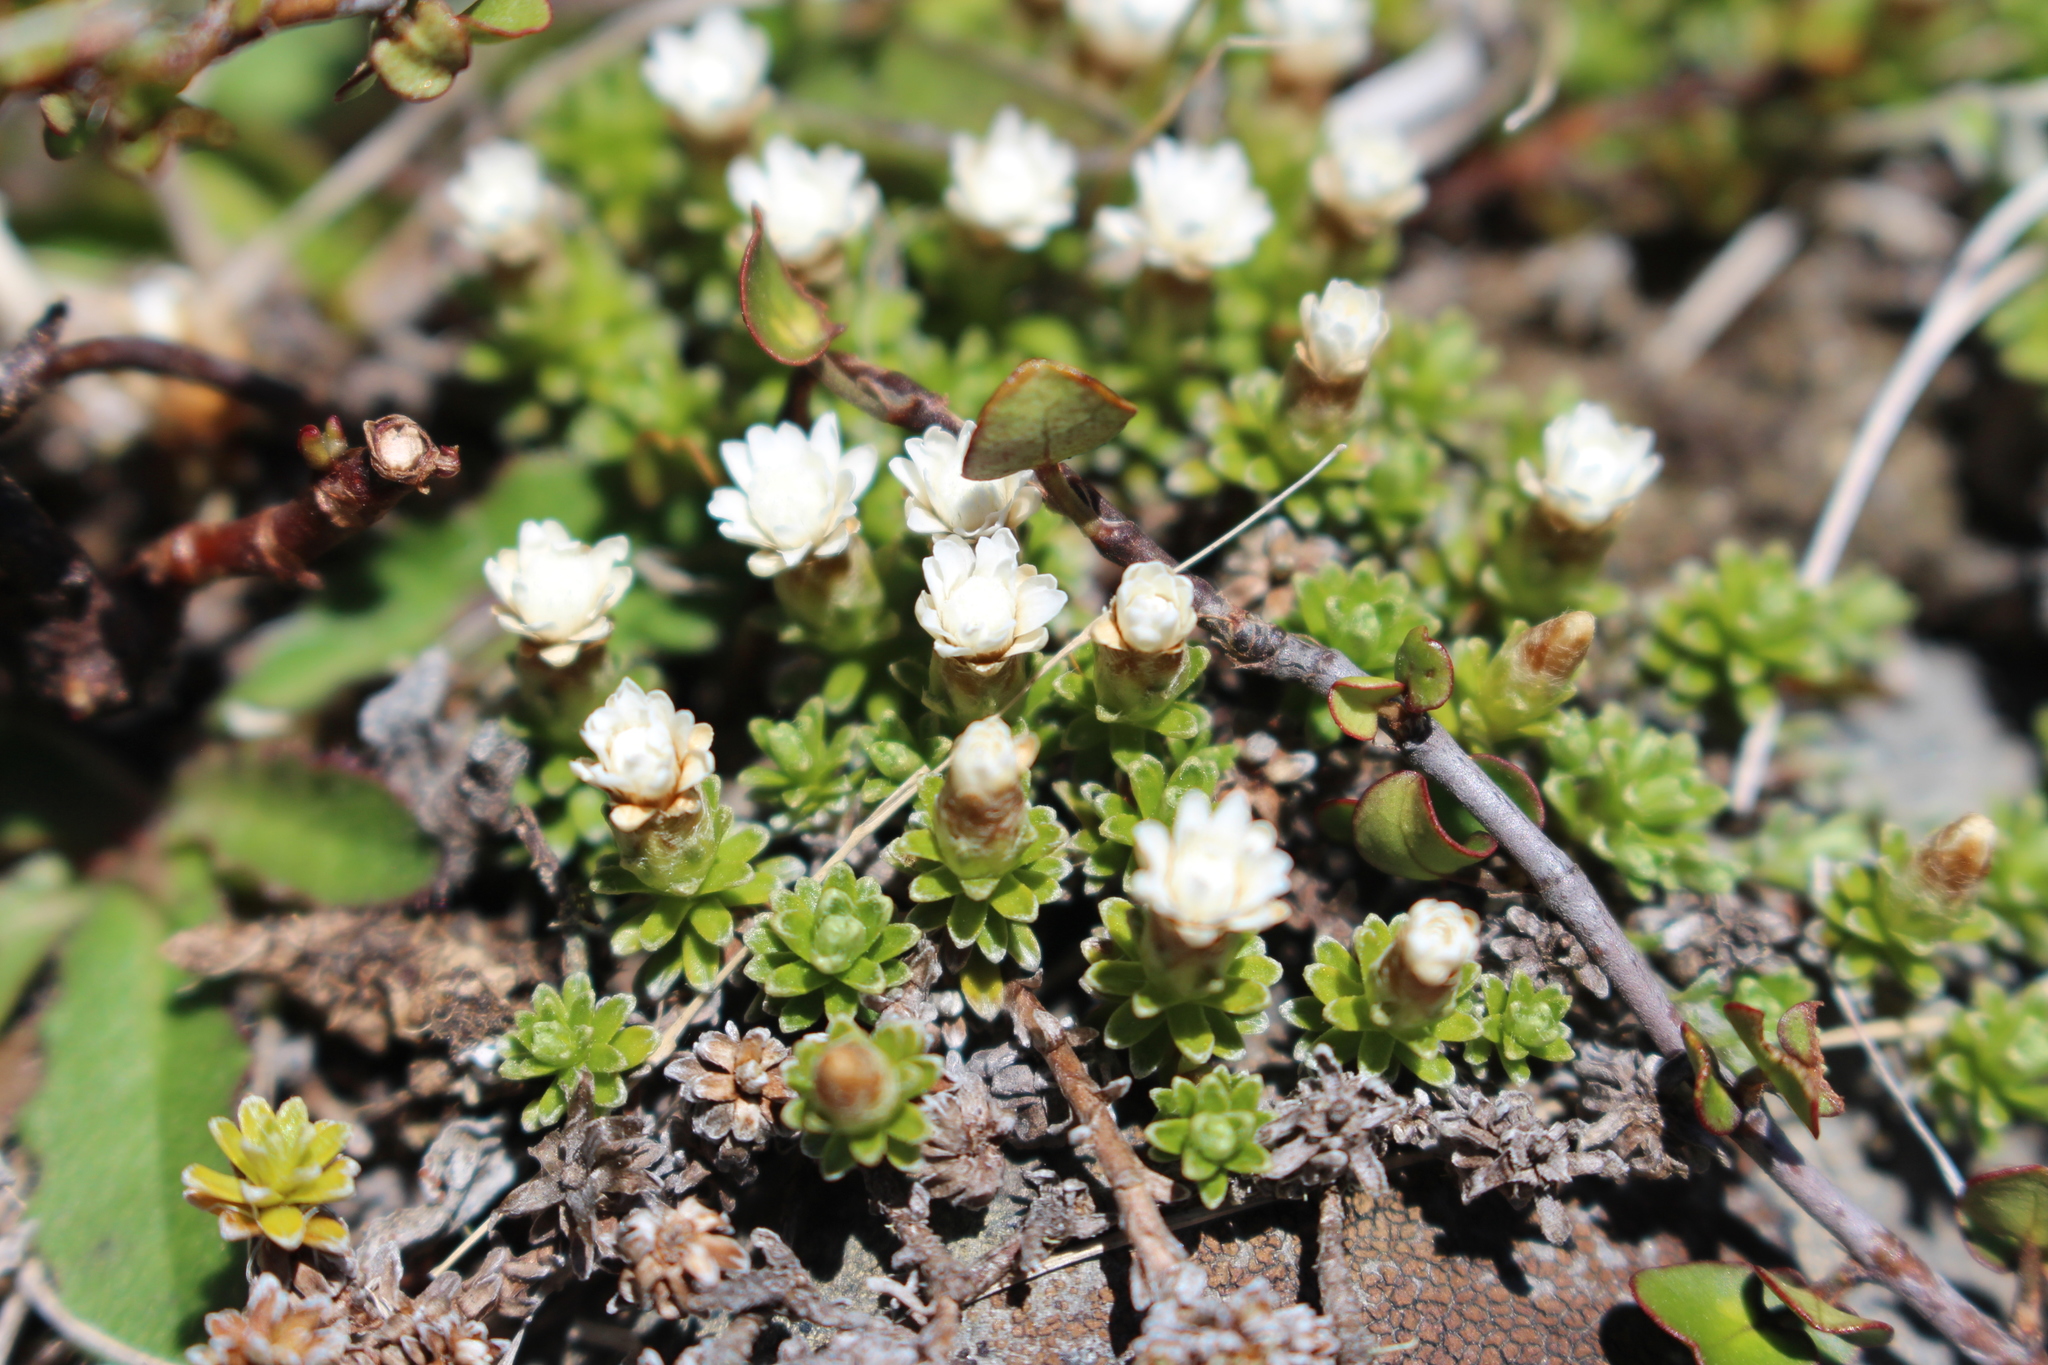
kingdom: Plantae
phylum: Tracheophyta
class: Magnoliopsida
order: Asterales
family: Asteraceae
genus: Raoulia
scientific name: Raoulia subsericea
